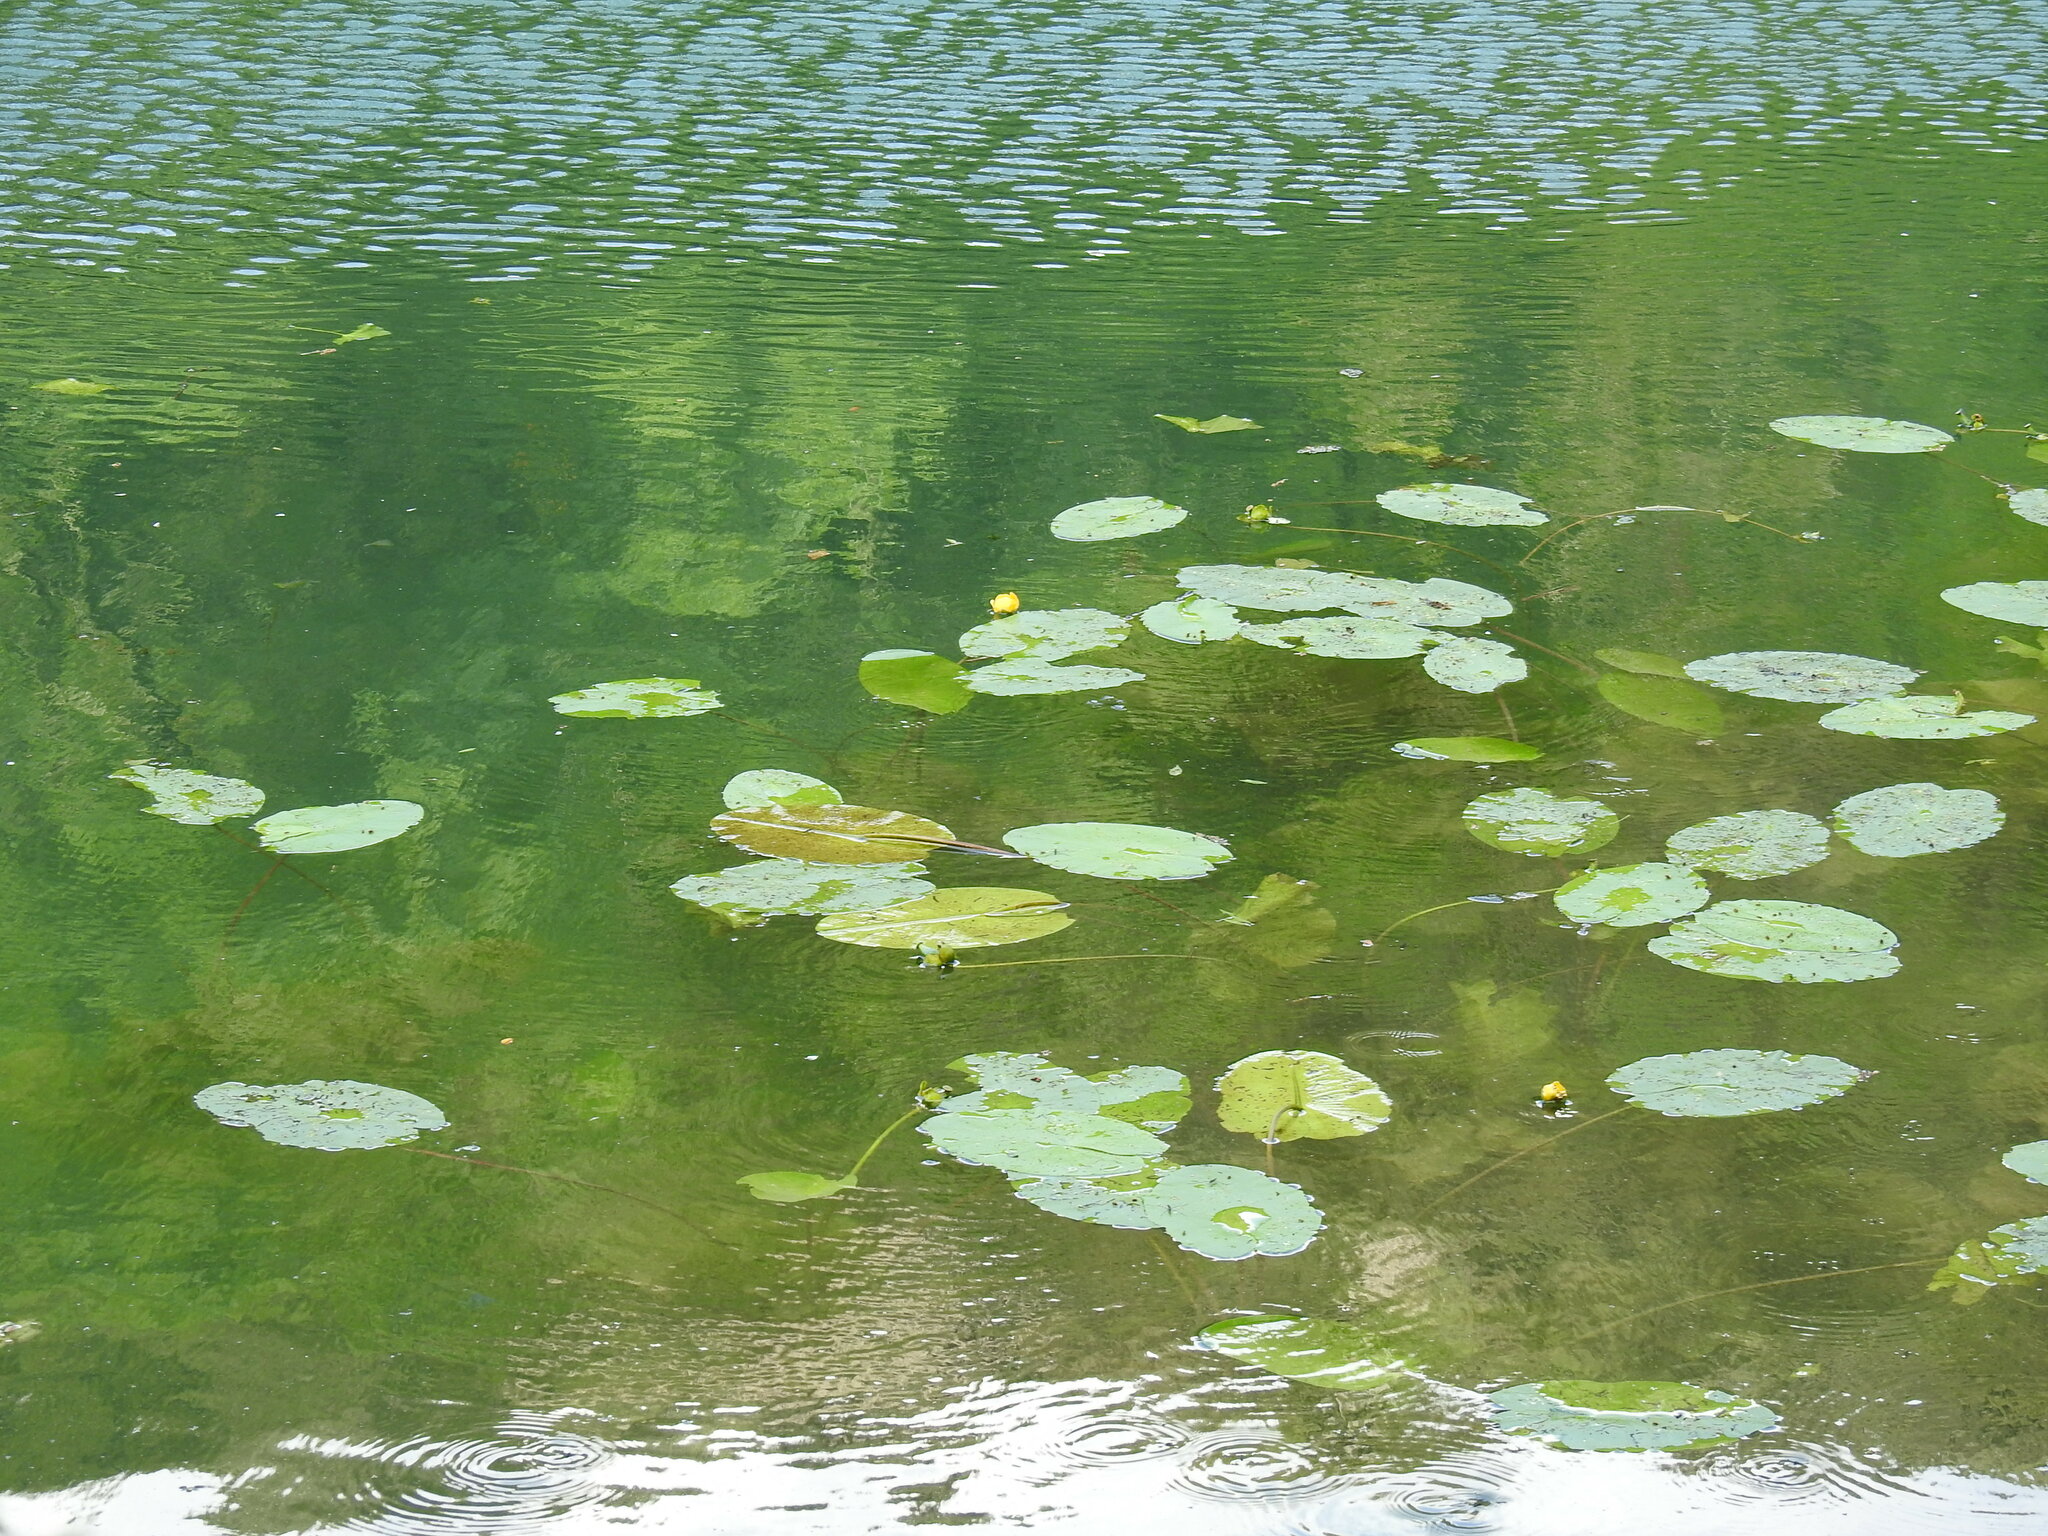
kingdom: Plantae
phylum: Tracheophyta
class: Magnoliopsida
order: Nymphaeales
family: Nymphaeaceae
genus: Nuphar
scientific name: Nuphar lutea
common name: Yellow water-lily
